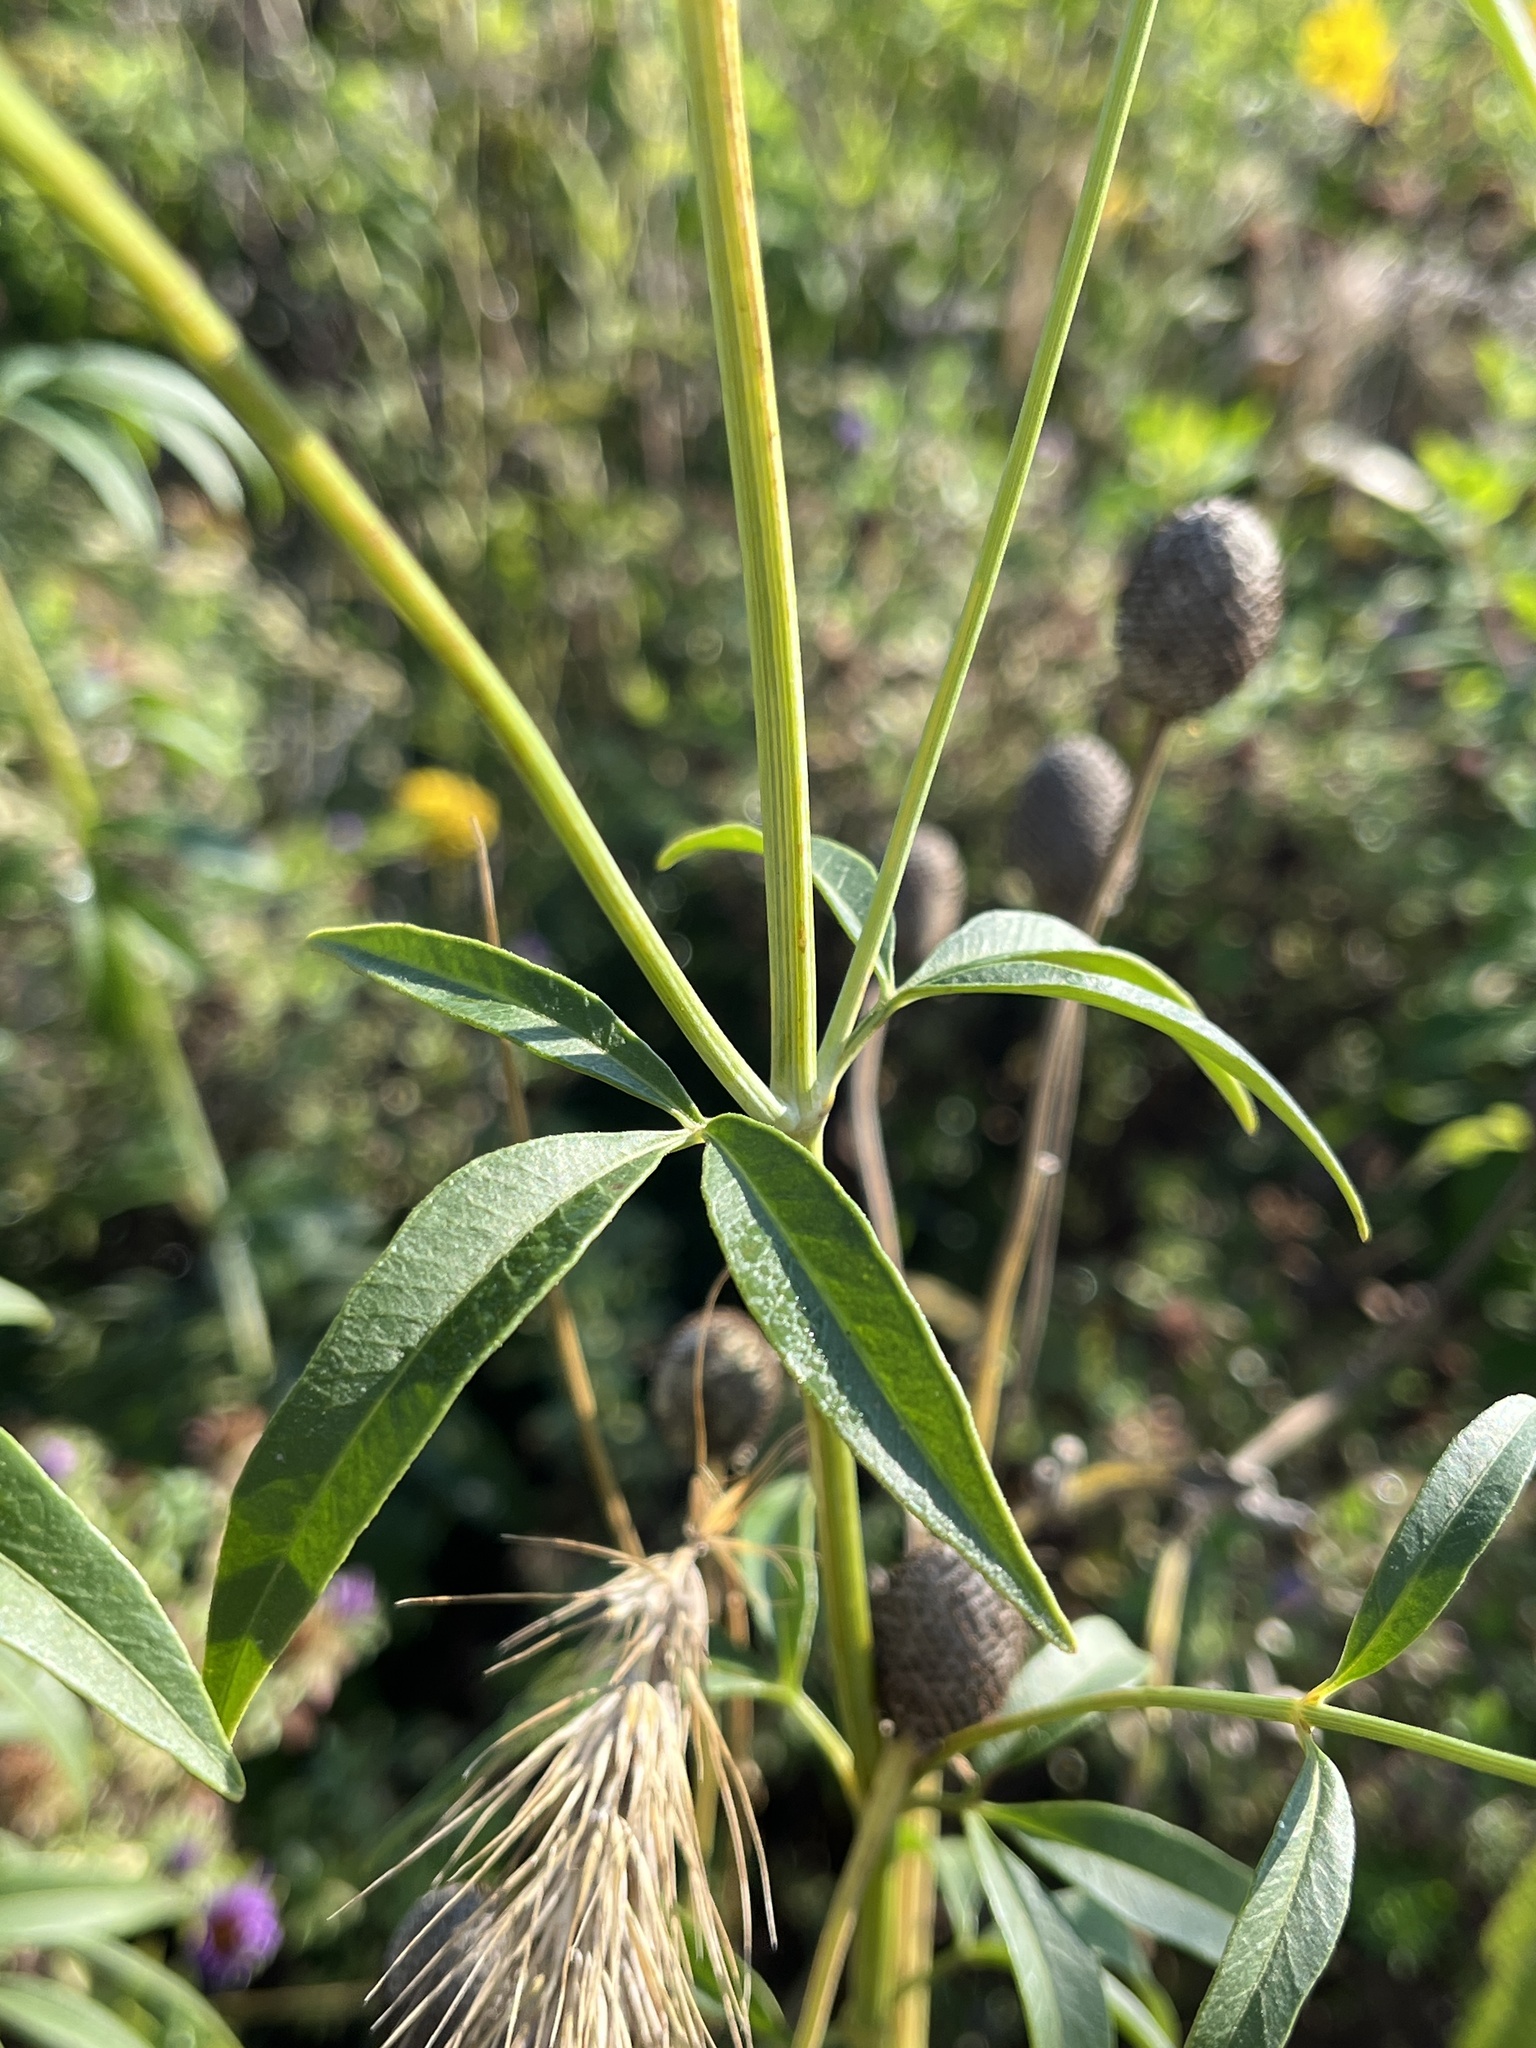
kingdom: Plantae
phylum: Tracheophyta
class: Magnoliopsida
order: Asterales
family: Asteraceae
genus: Coreopsis
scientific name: Coreopsis tripteris
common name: Tall coreopsis
